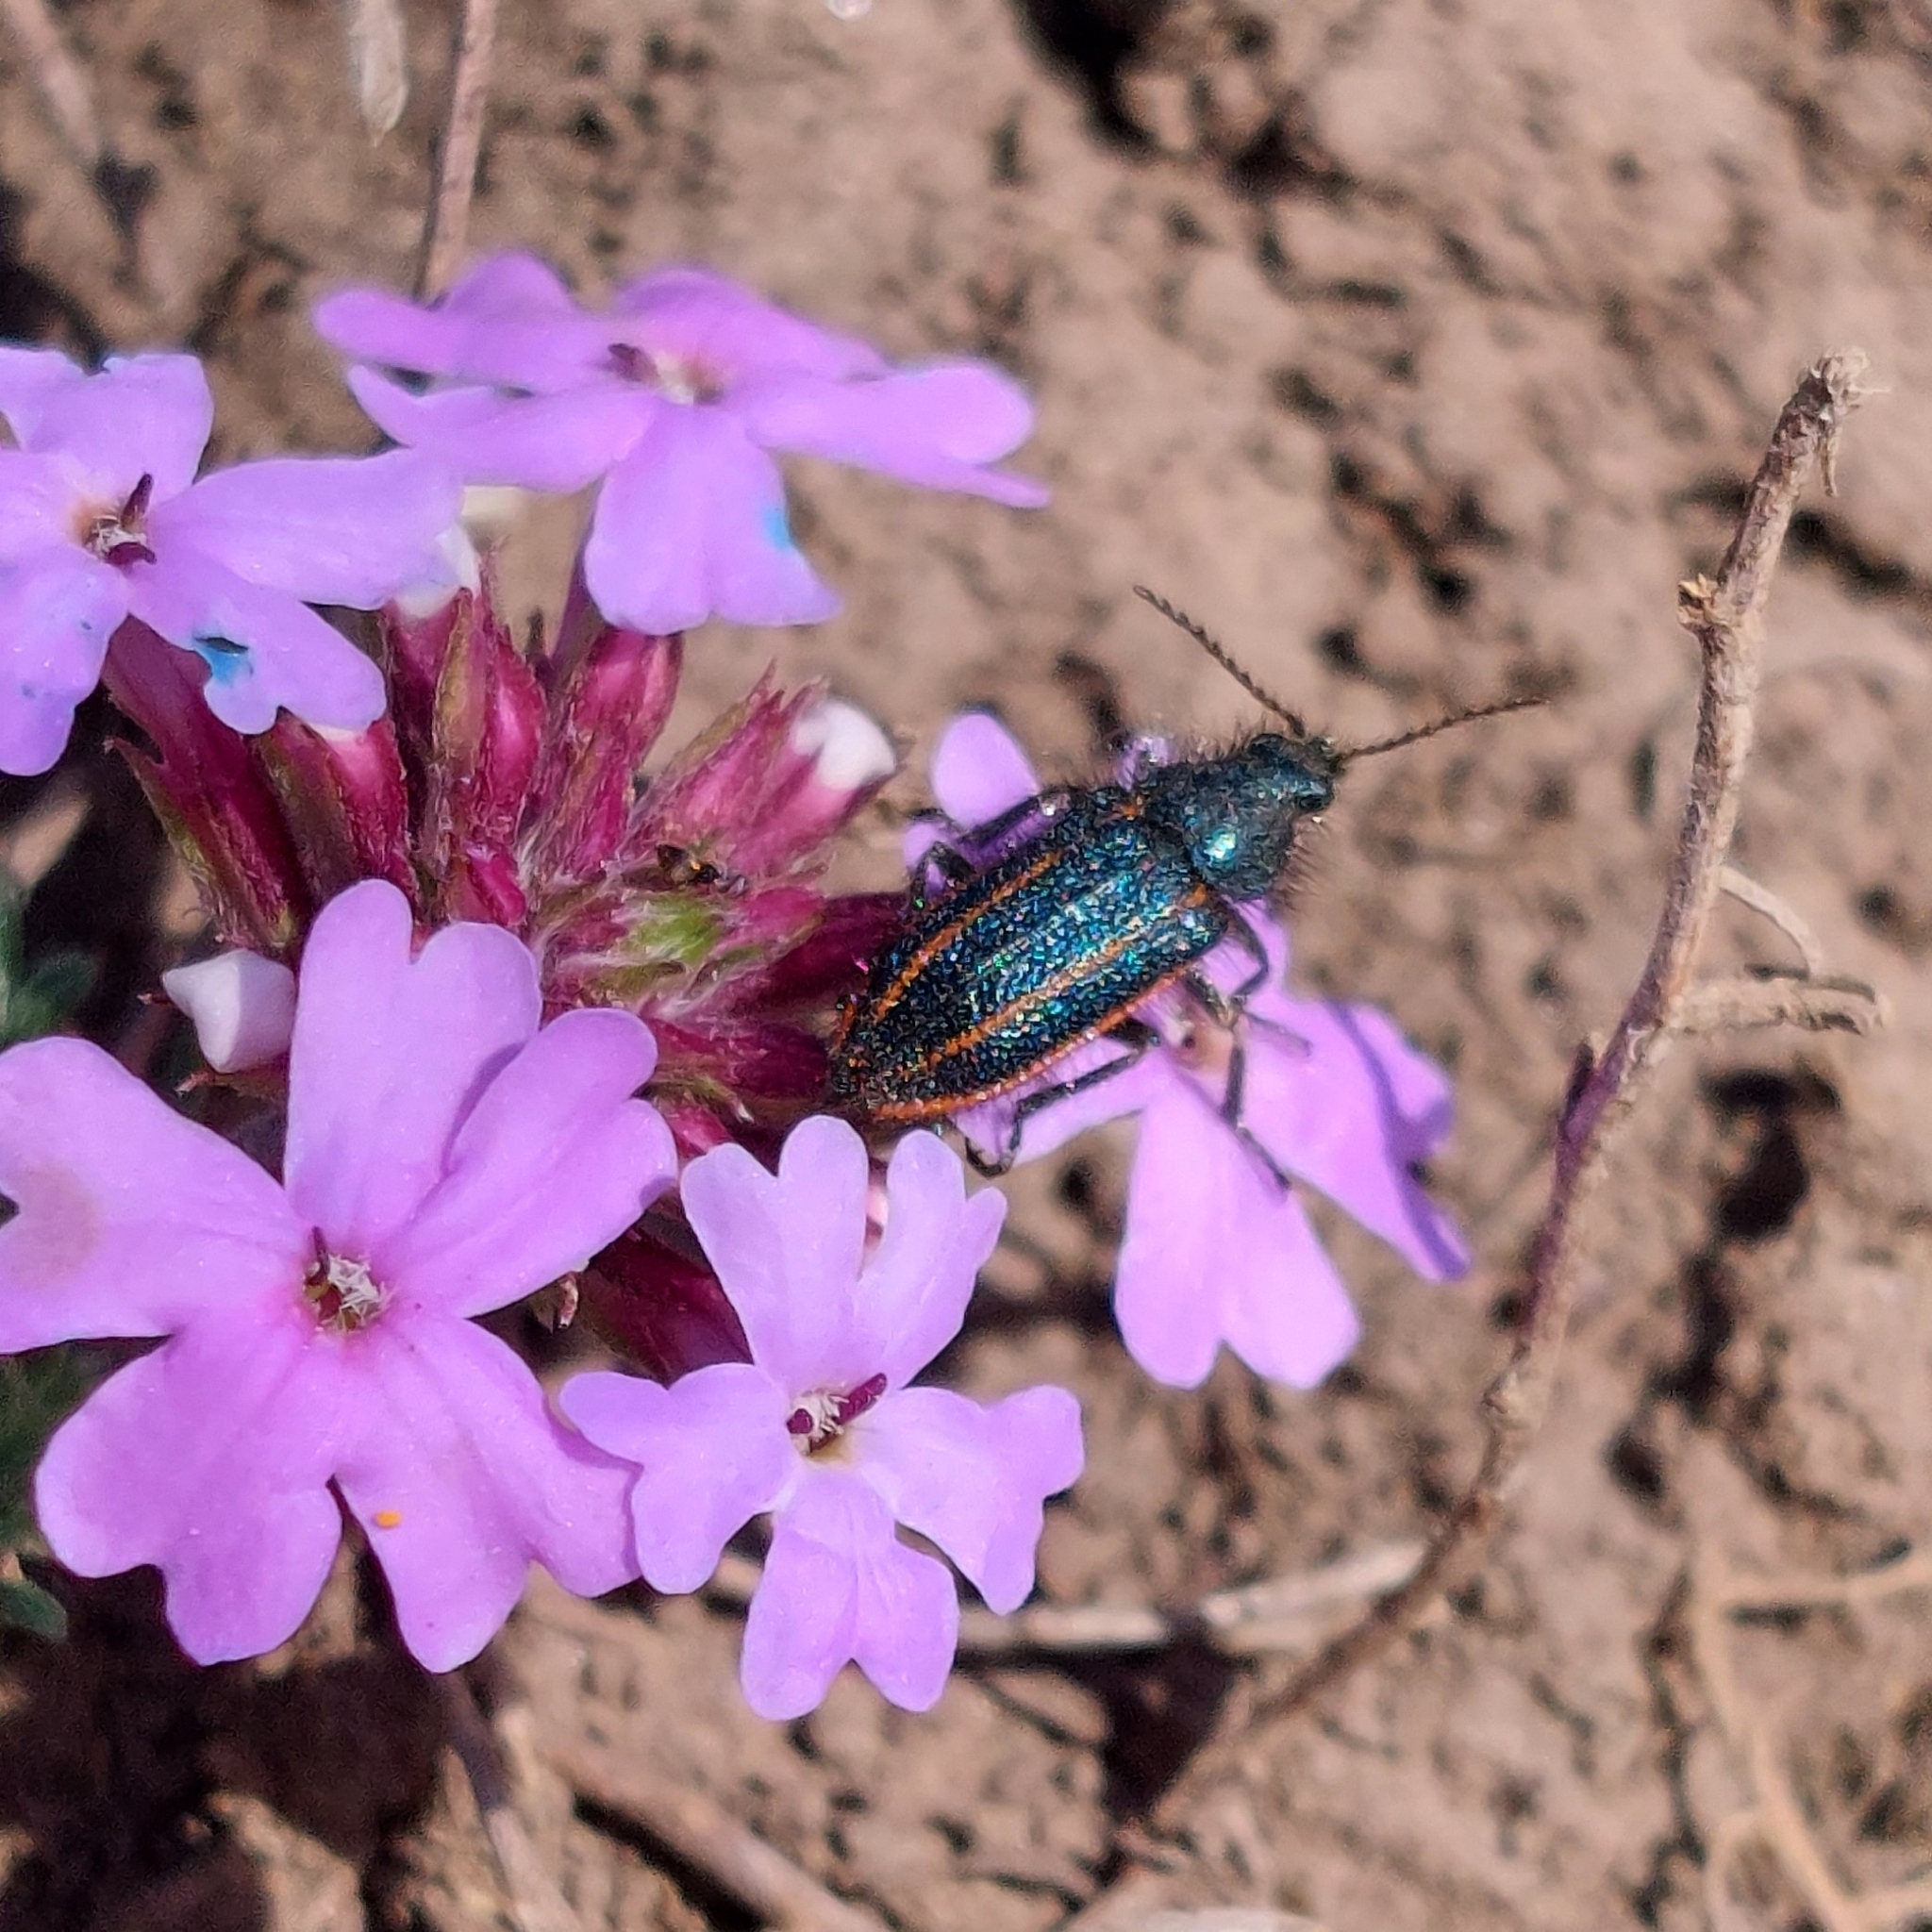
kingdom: Animalia
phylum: Arthropoda
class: Insecta
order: Coleoptera
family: Melyridae
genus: Astylus
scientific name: Astylus
